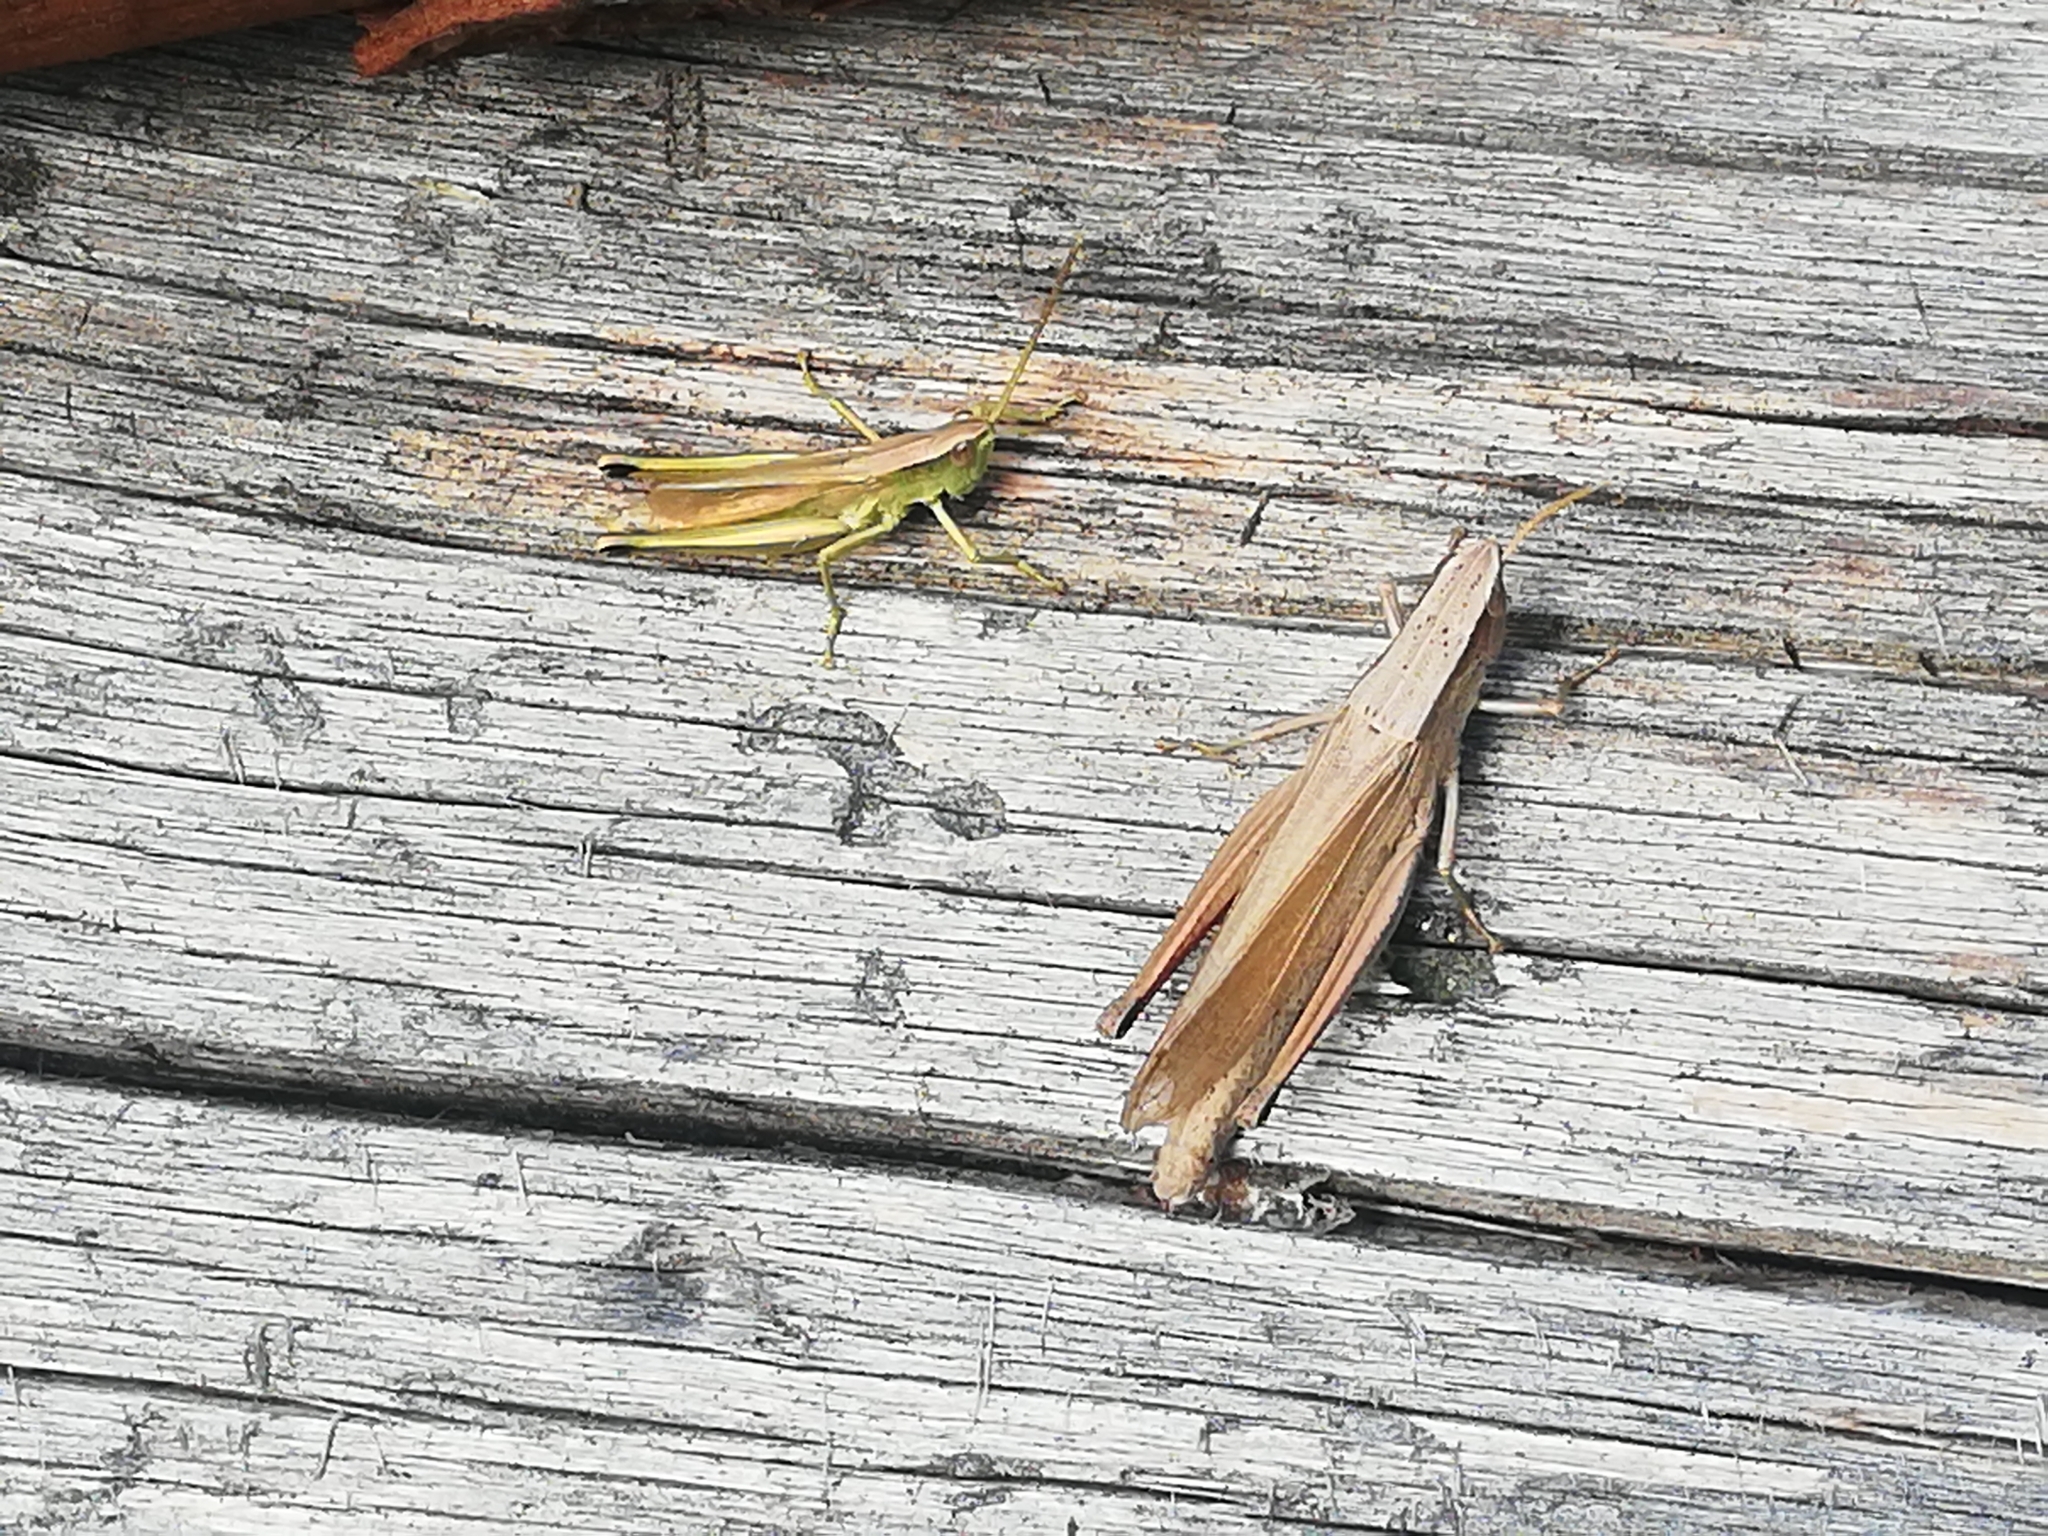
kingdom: Animalia
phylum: Arthropoda
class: Insecta
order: Orthoptera
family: Acrididae
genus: Chrysochraon
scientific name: Chrysochraon dispar
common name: Large gold grasshopper
